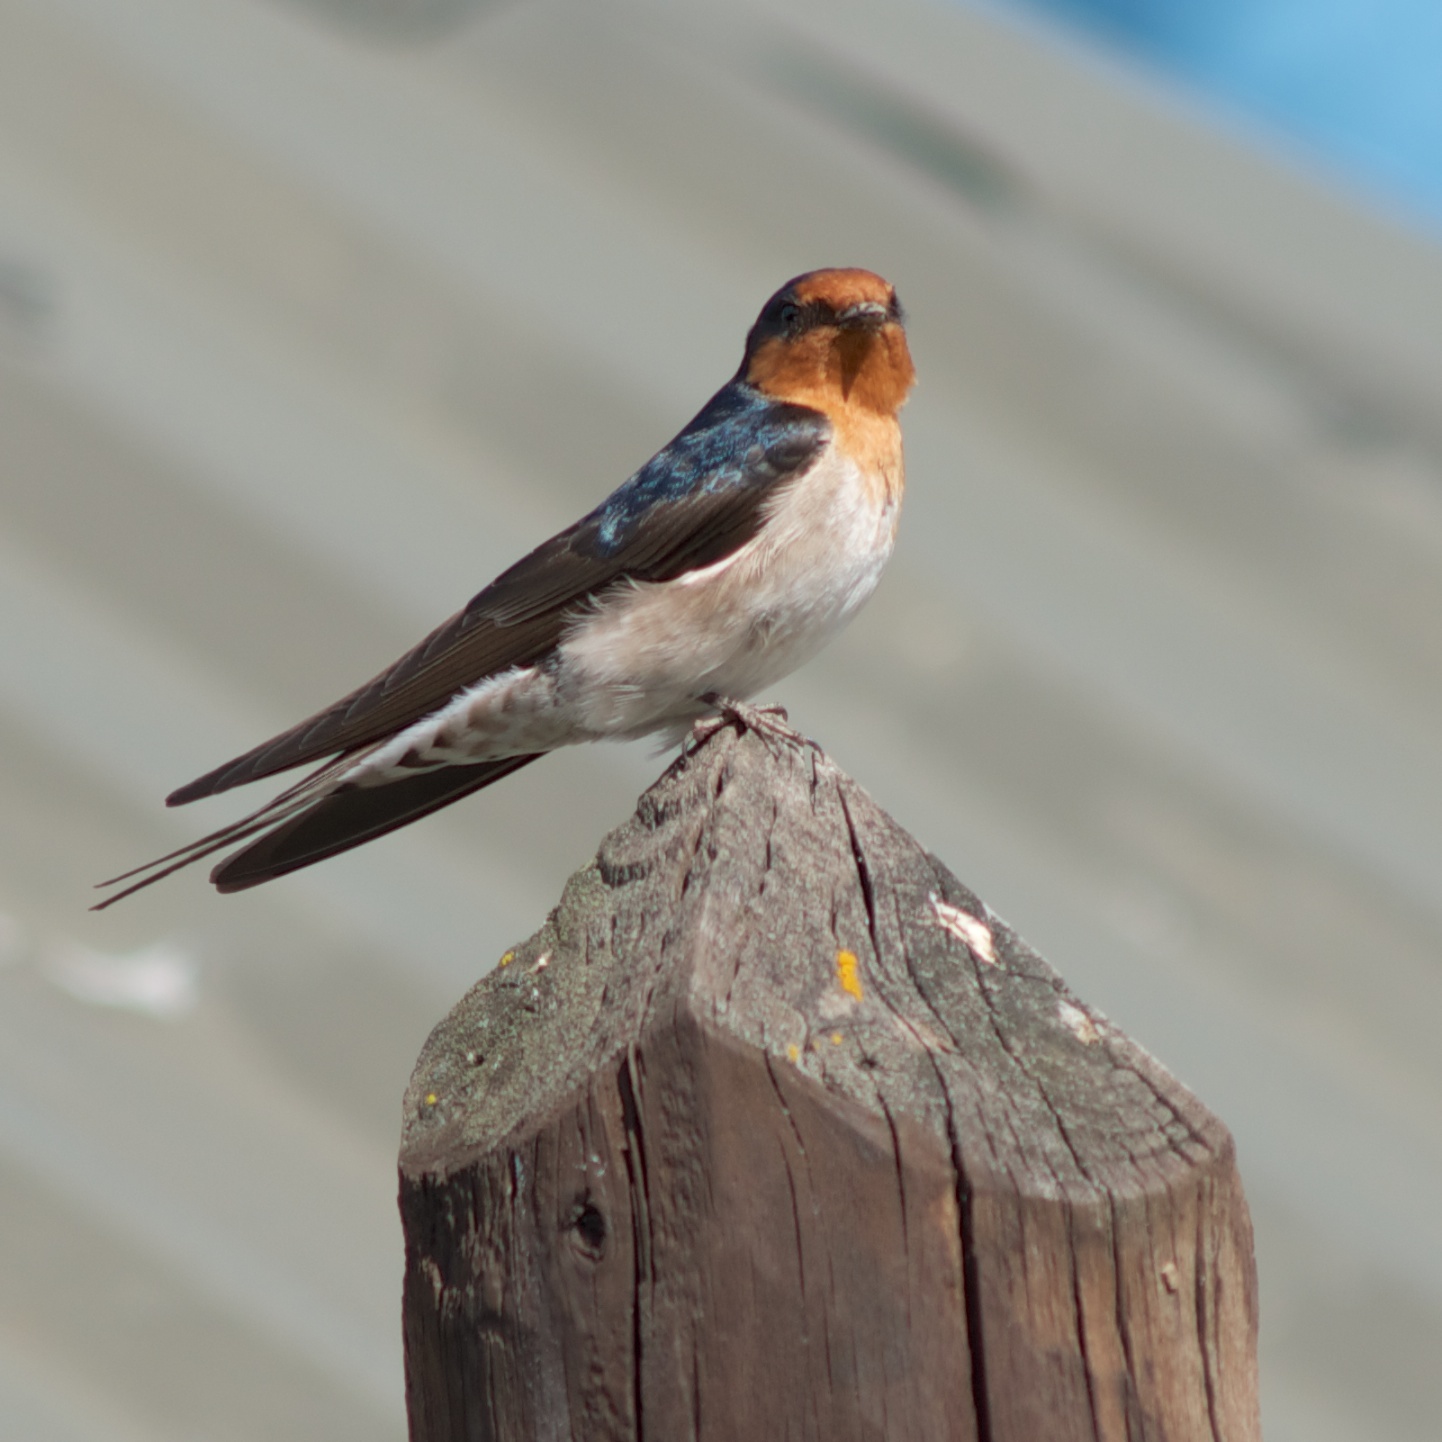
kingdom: Animalia
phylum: Chordata
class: Aves
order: Passeriformes
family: Hirundinidae
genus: Hirundo
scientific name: Hirundo neoxena
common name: Welcome swallow
